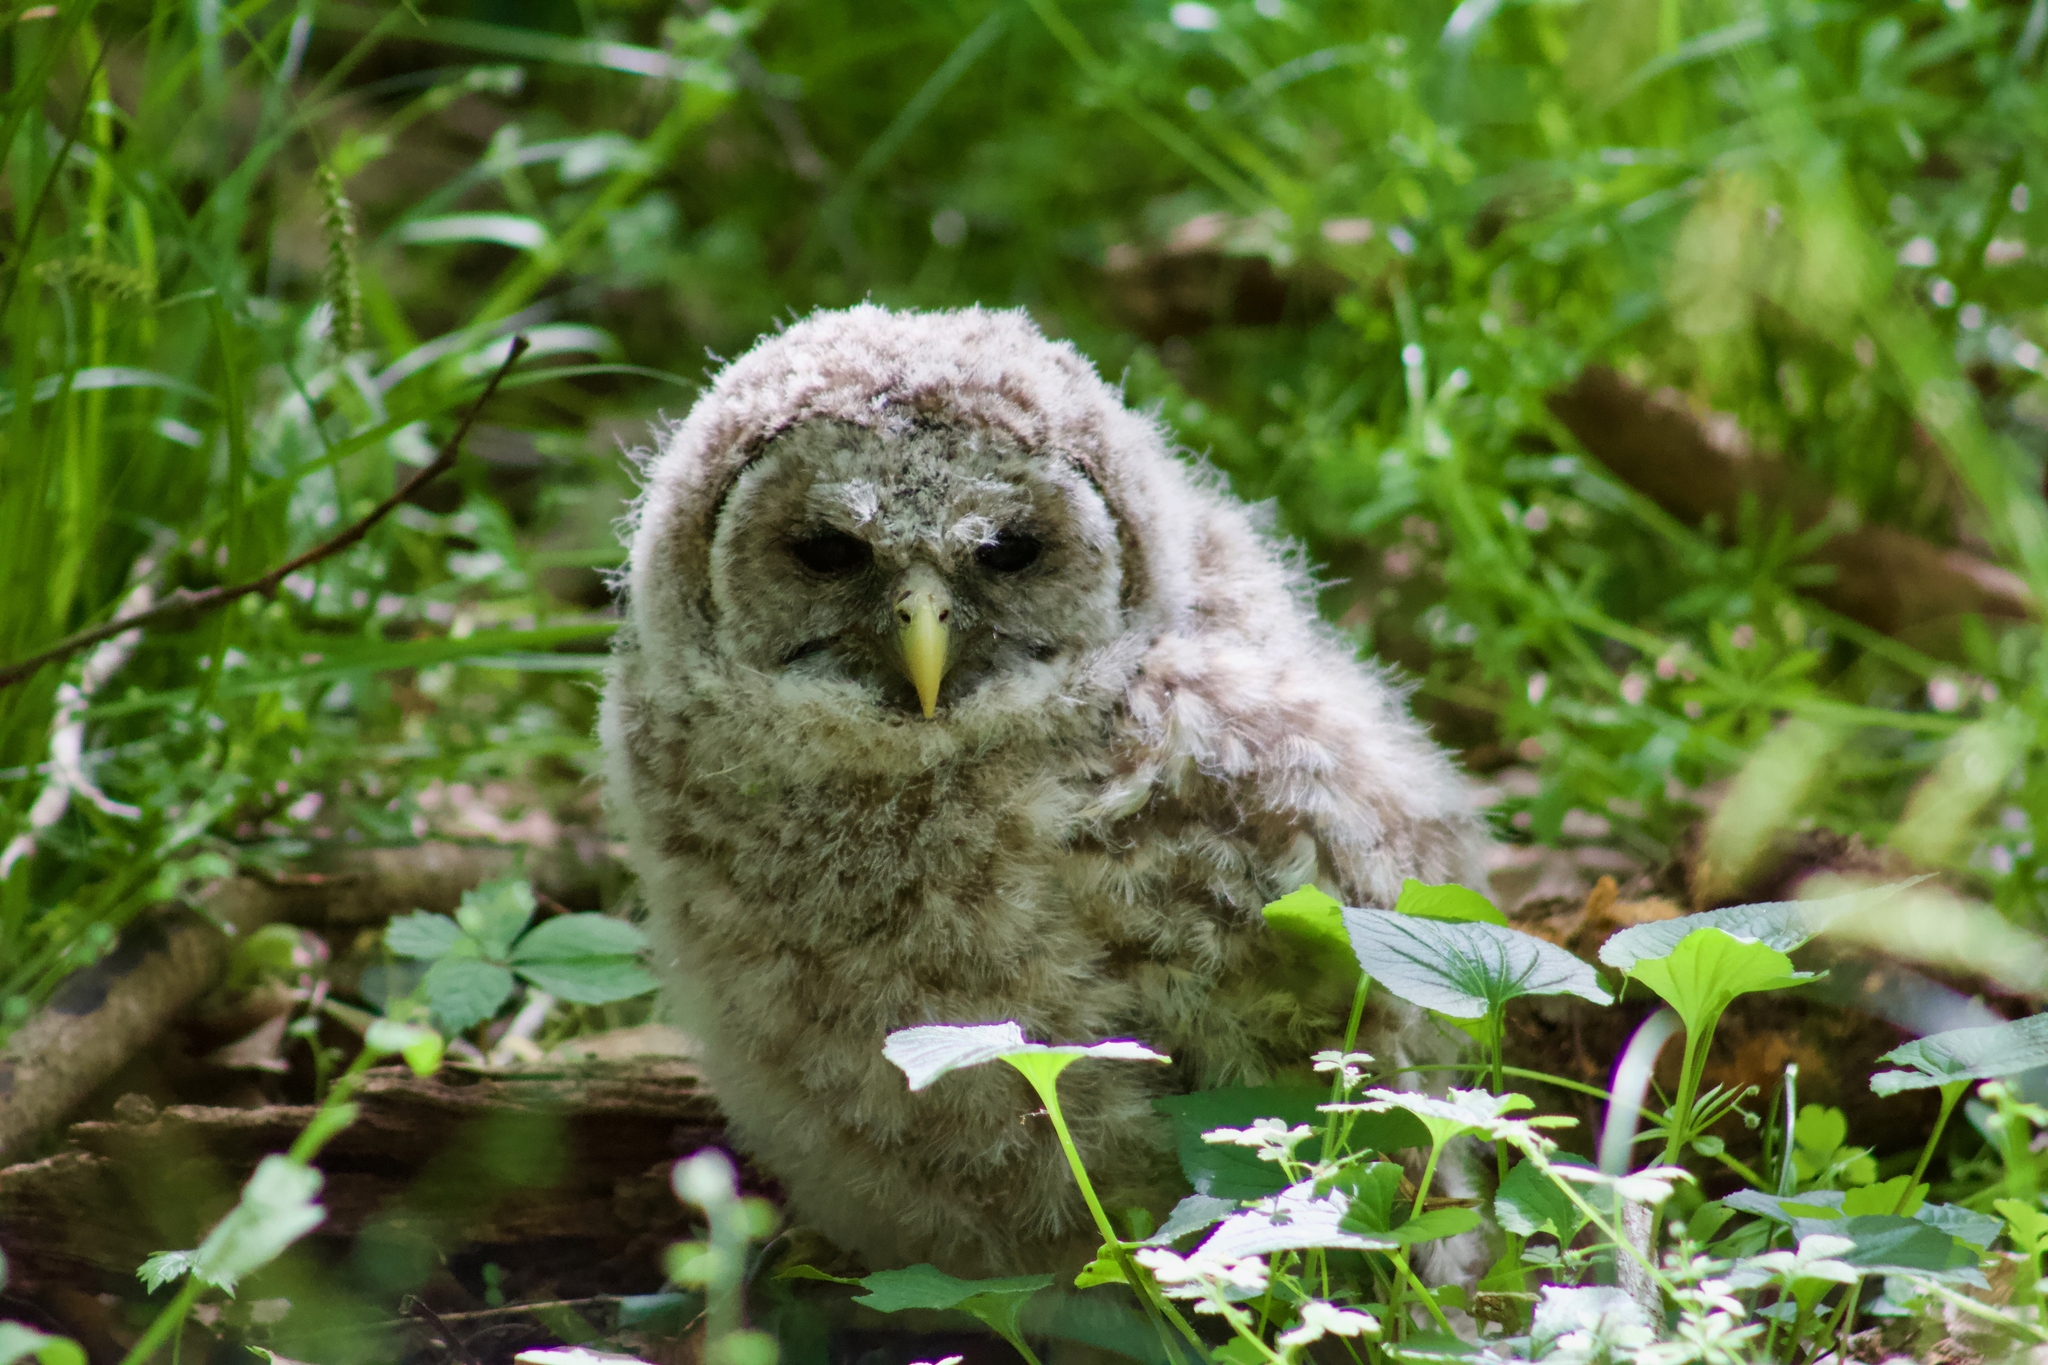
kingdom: Animalia
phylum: Chordata
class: Aves
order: Strigiformes
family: Strigidae
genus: Strix
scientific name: Strix varia
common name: Barred owl
